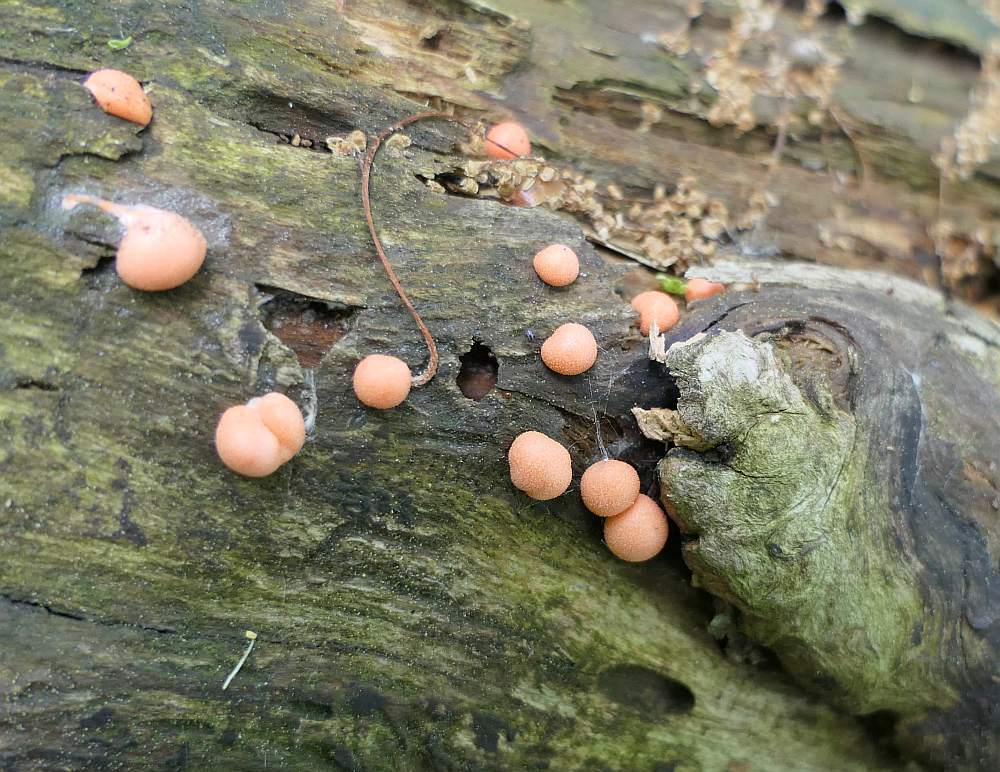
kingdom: Protozoa
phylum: Mycetozoa
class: Myxomycetes
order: Cribrariales
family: Tubiferaceae
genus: Lycogala
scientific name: Lycogala epidendrum
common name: Wolf's milk
